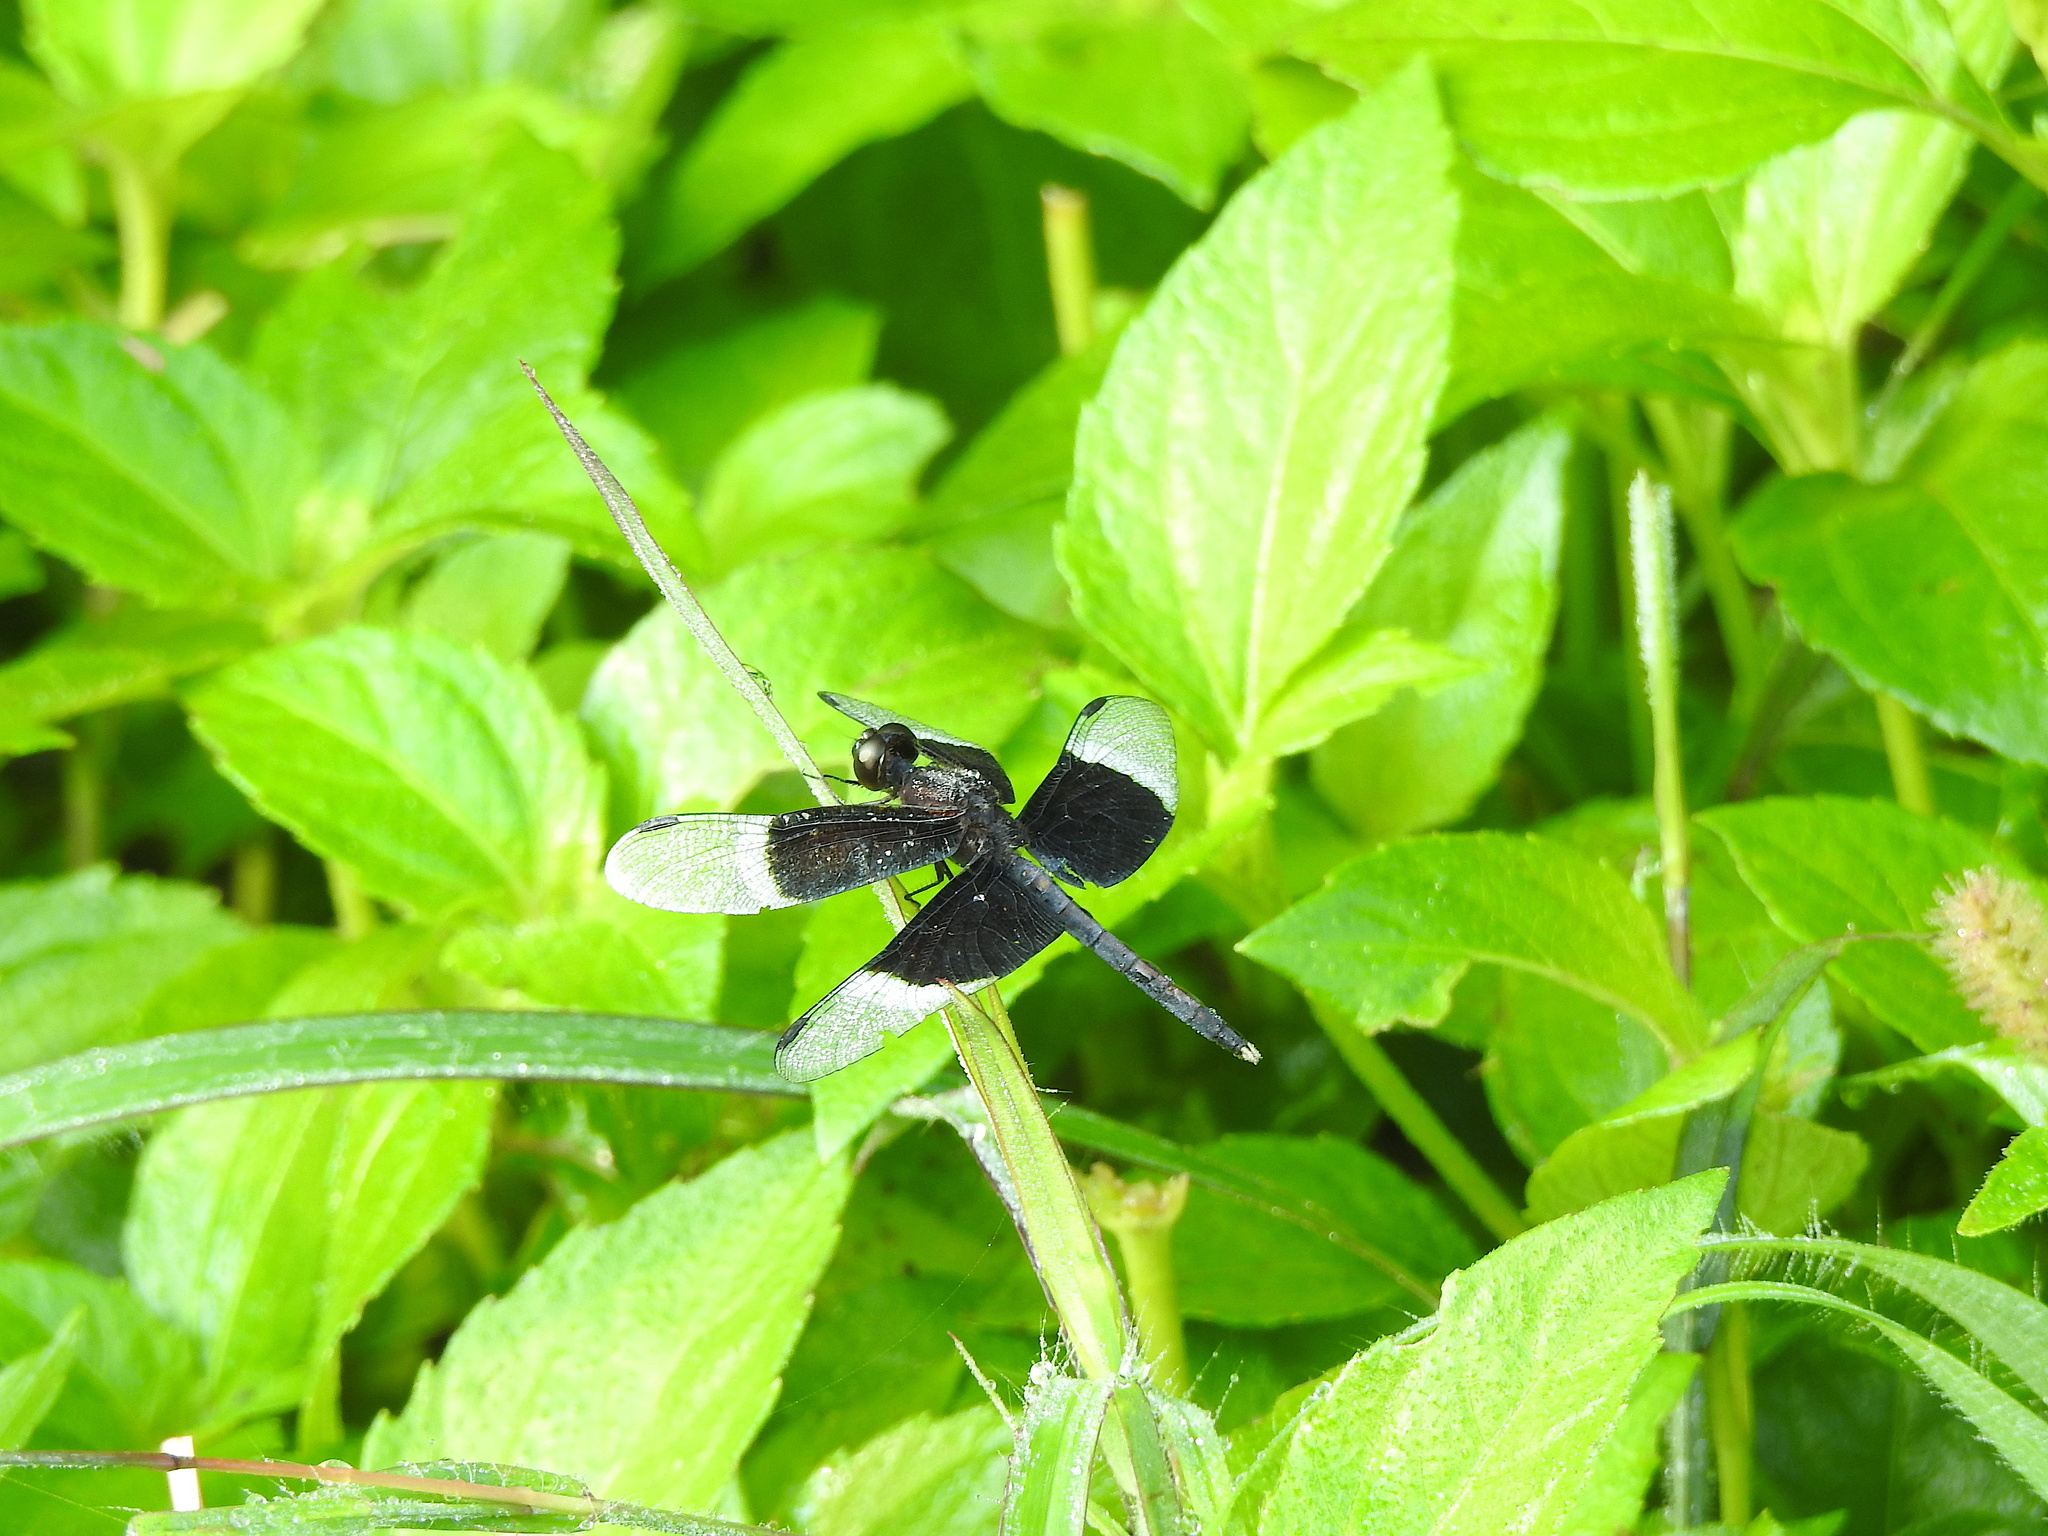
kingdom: Animalia
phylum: Arthropoda
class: Insecta
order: Odonata
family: Libellulidae
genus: Neurothemis
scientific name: Neurothemis tullia
